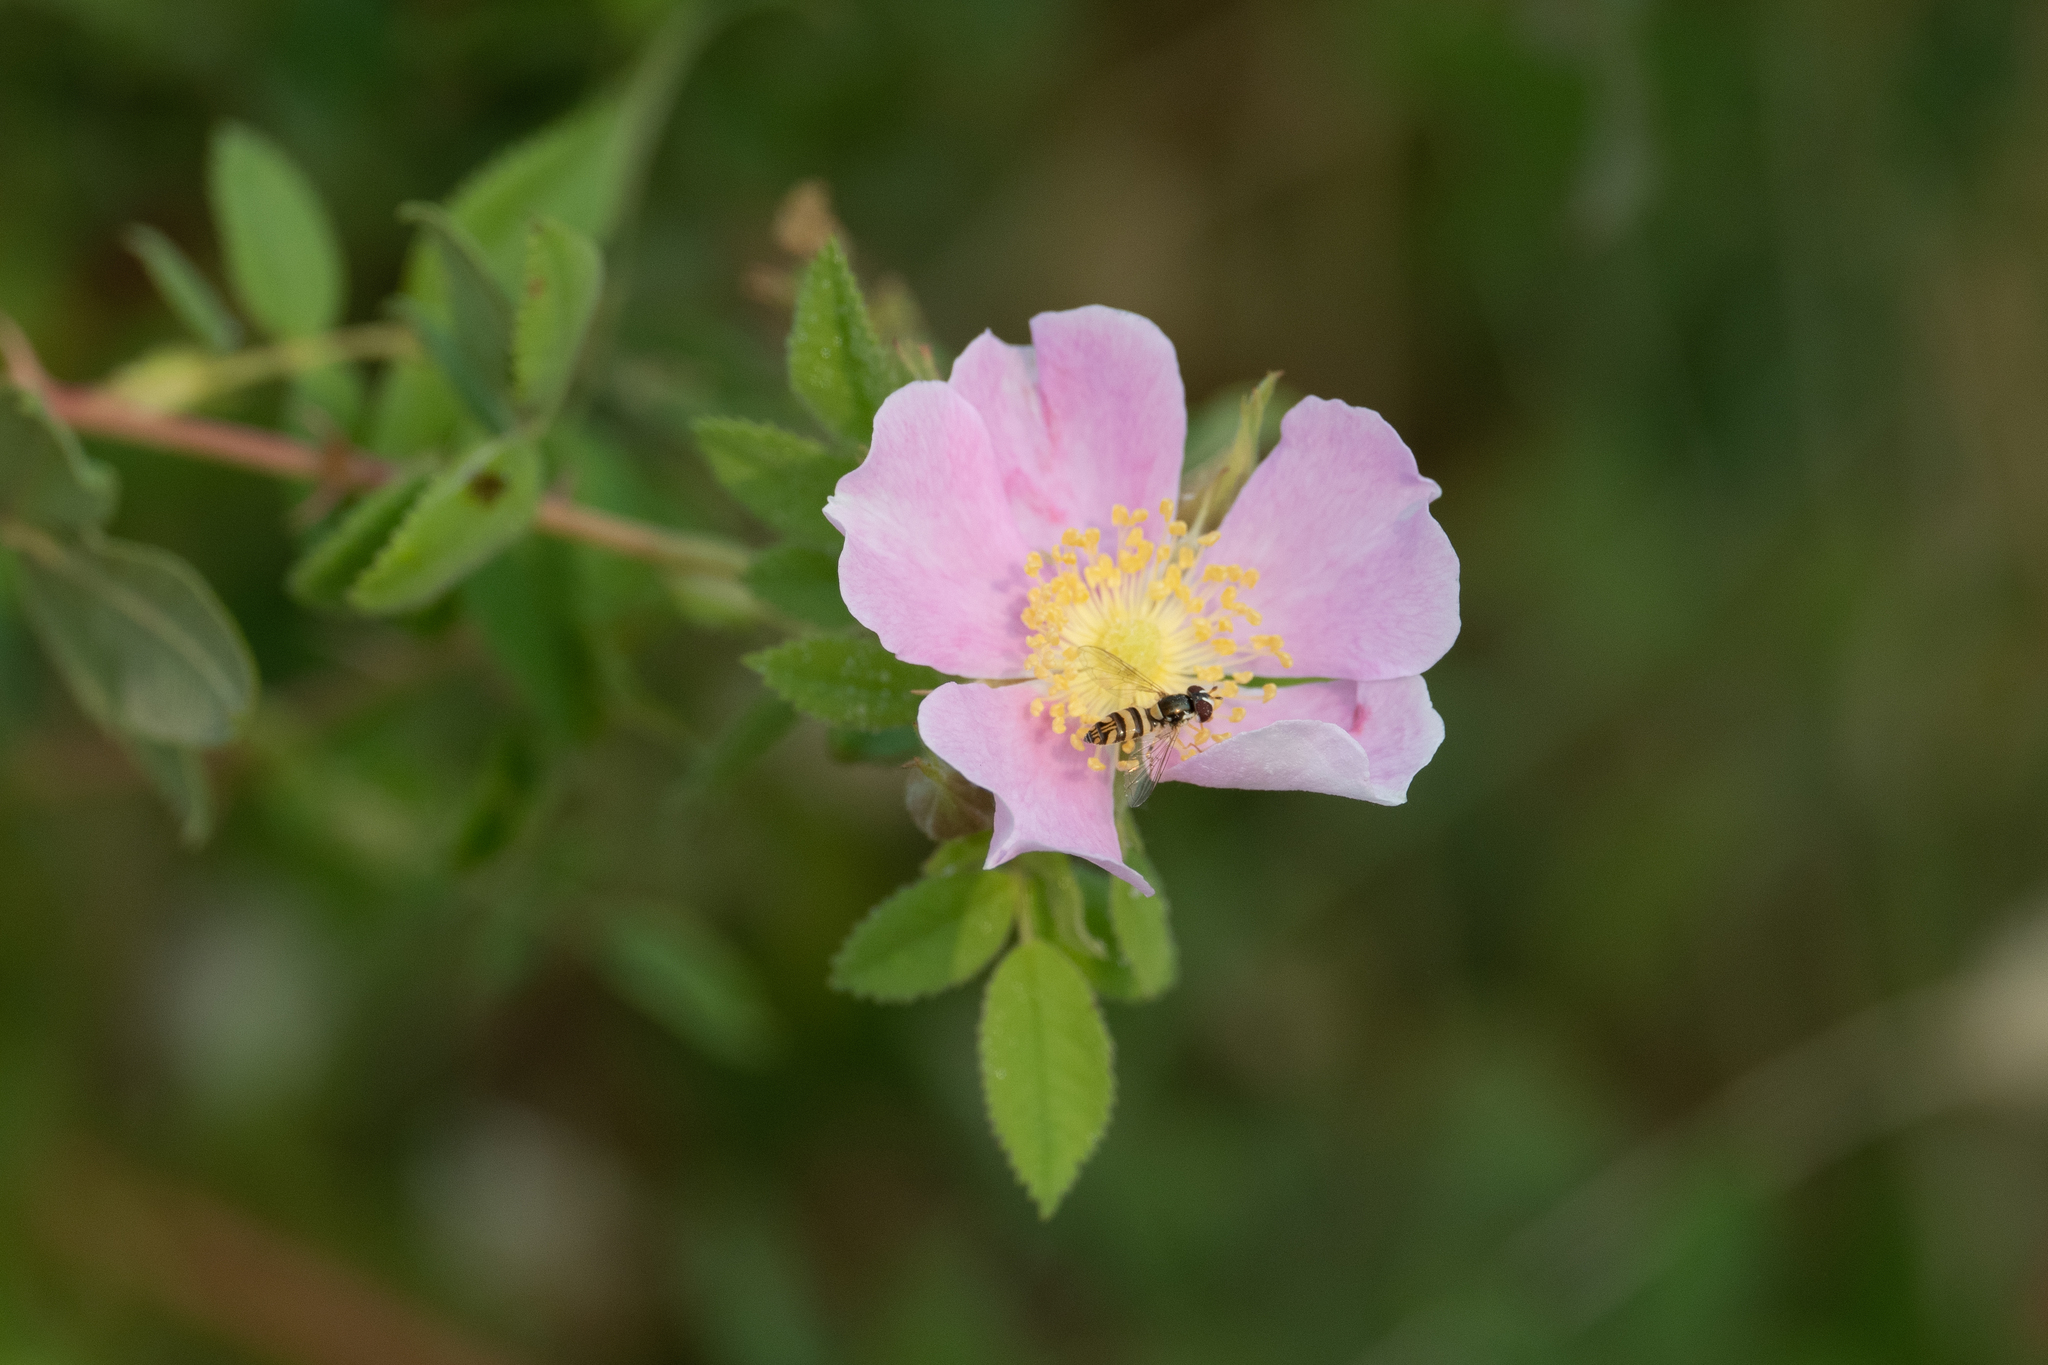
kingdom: Plantae
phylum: Tracheophyta
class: Magnoliopsida
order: Rosales
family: Rosaceae
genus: Rosa
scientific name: Rosa californica
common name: California rose
